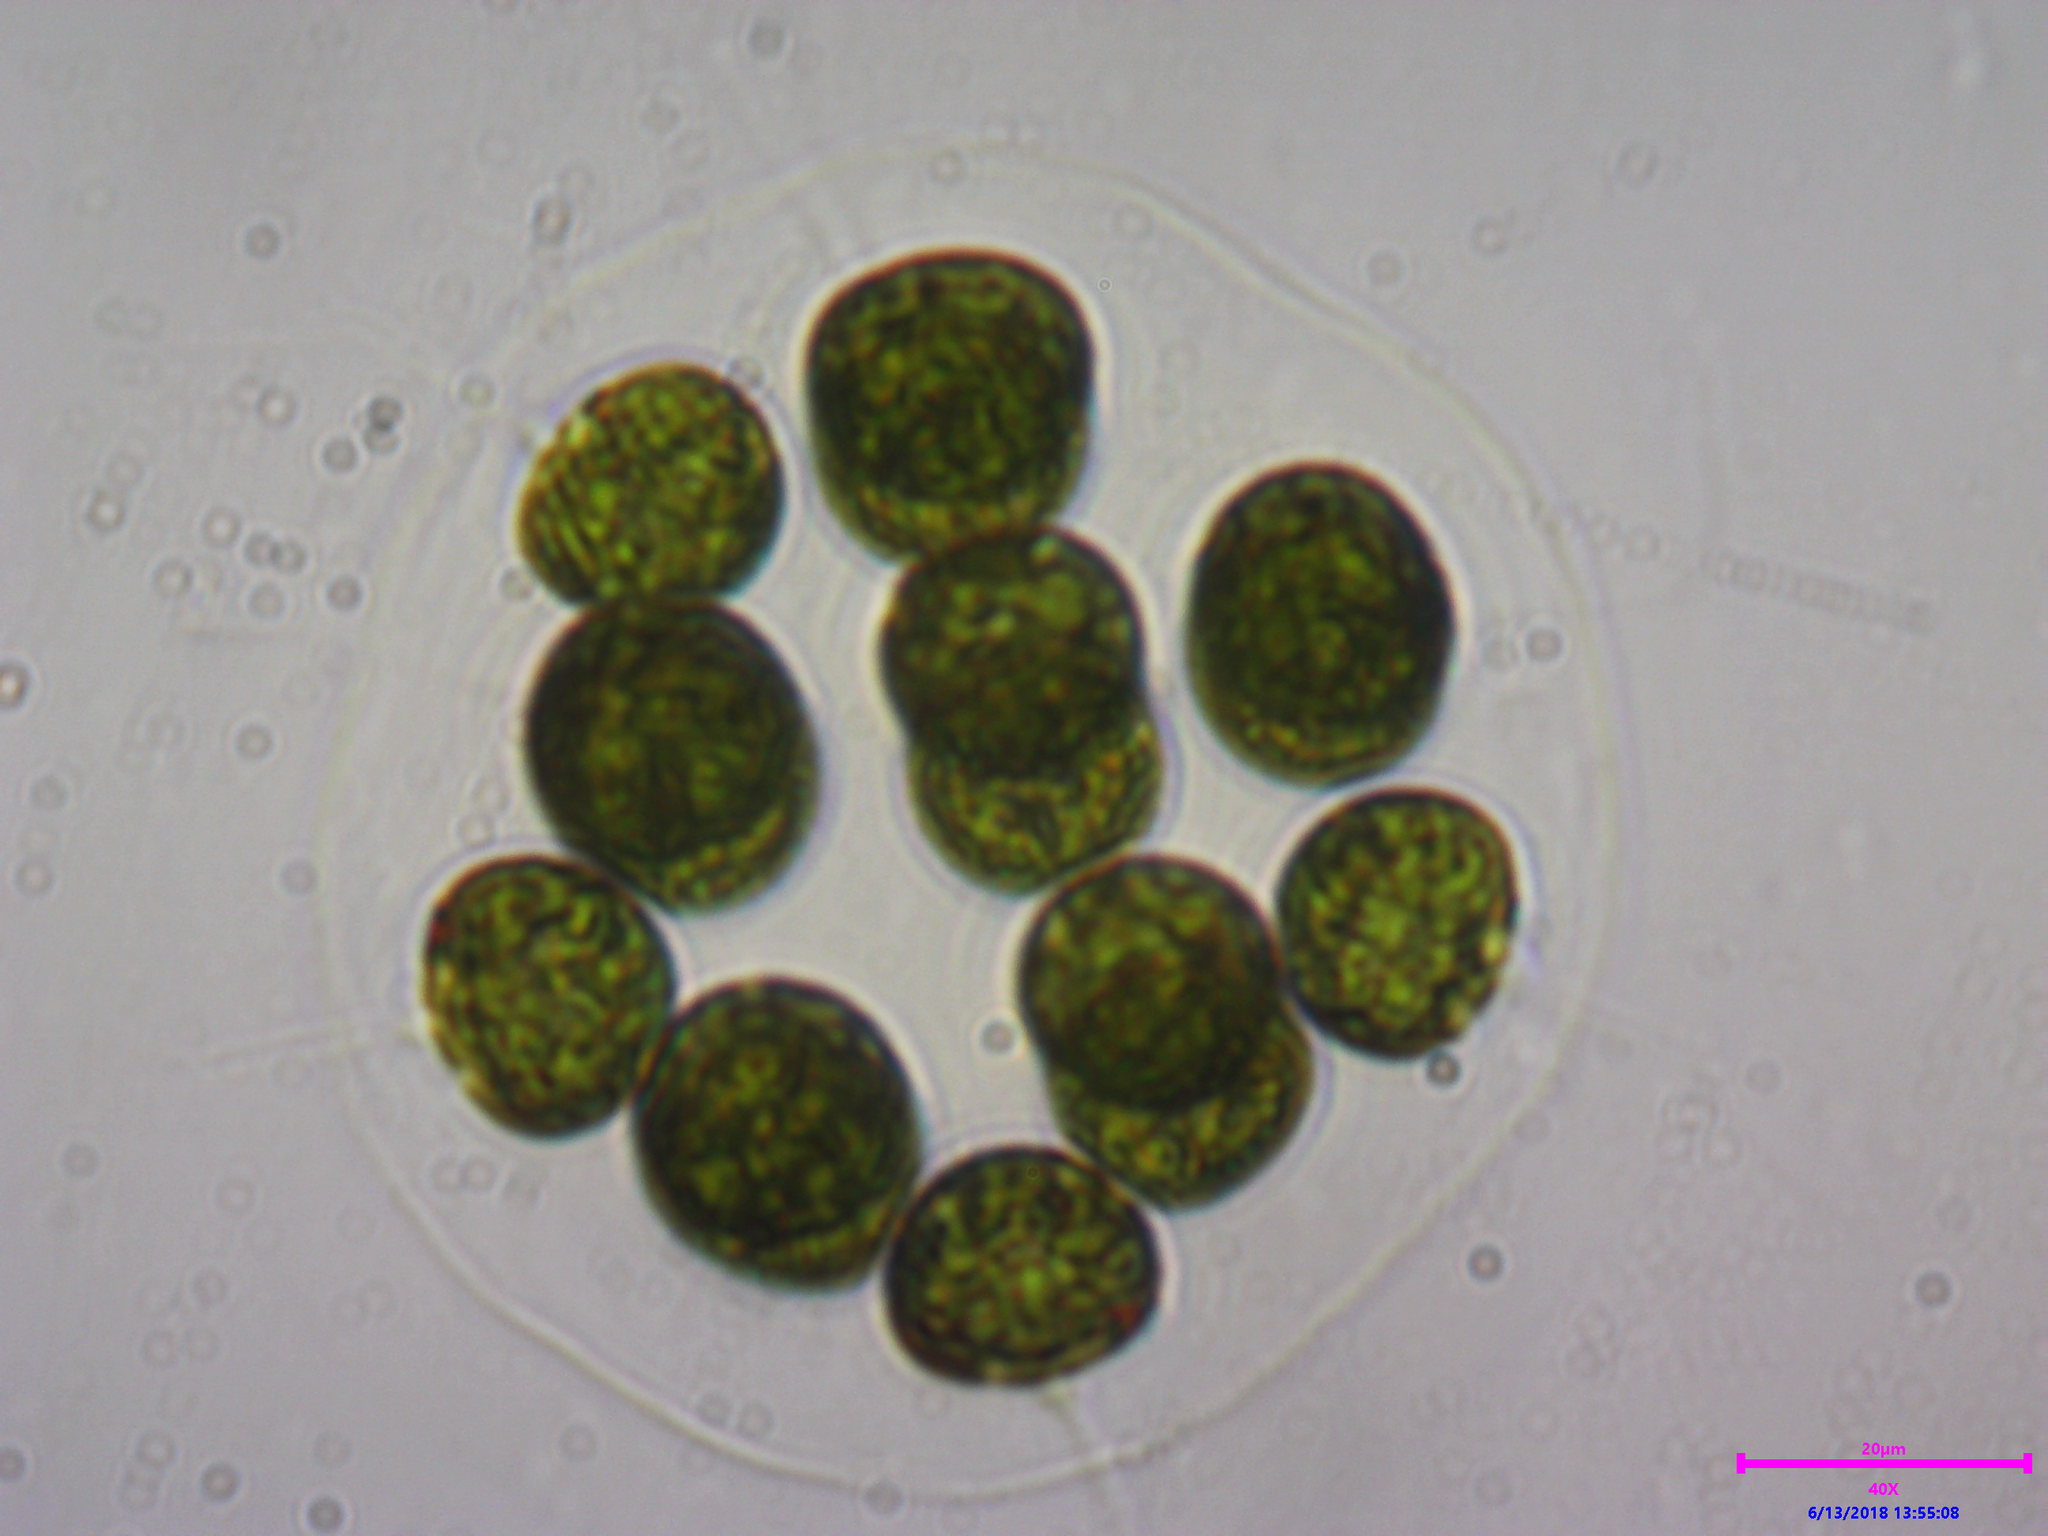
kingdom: Plantae
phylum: Chlorophyta
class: Chlorophyceae
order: Volvocales
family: Volvocaceae
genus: Eudorina
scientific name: Eudorina elegans
